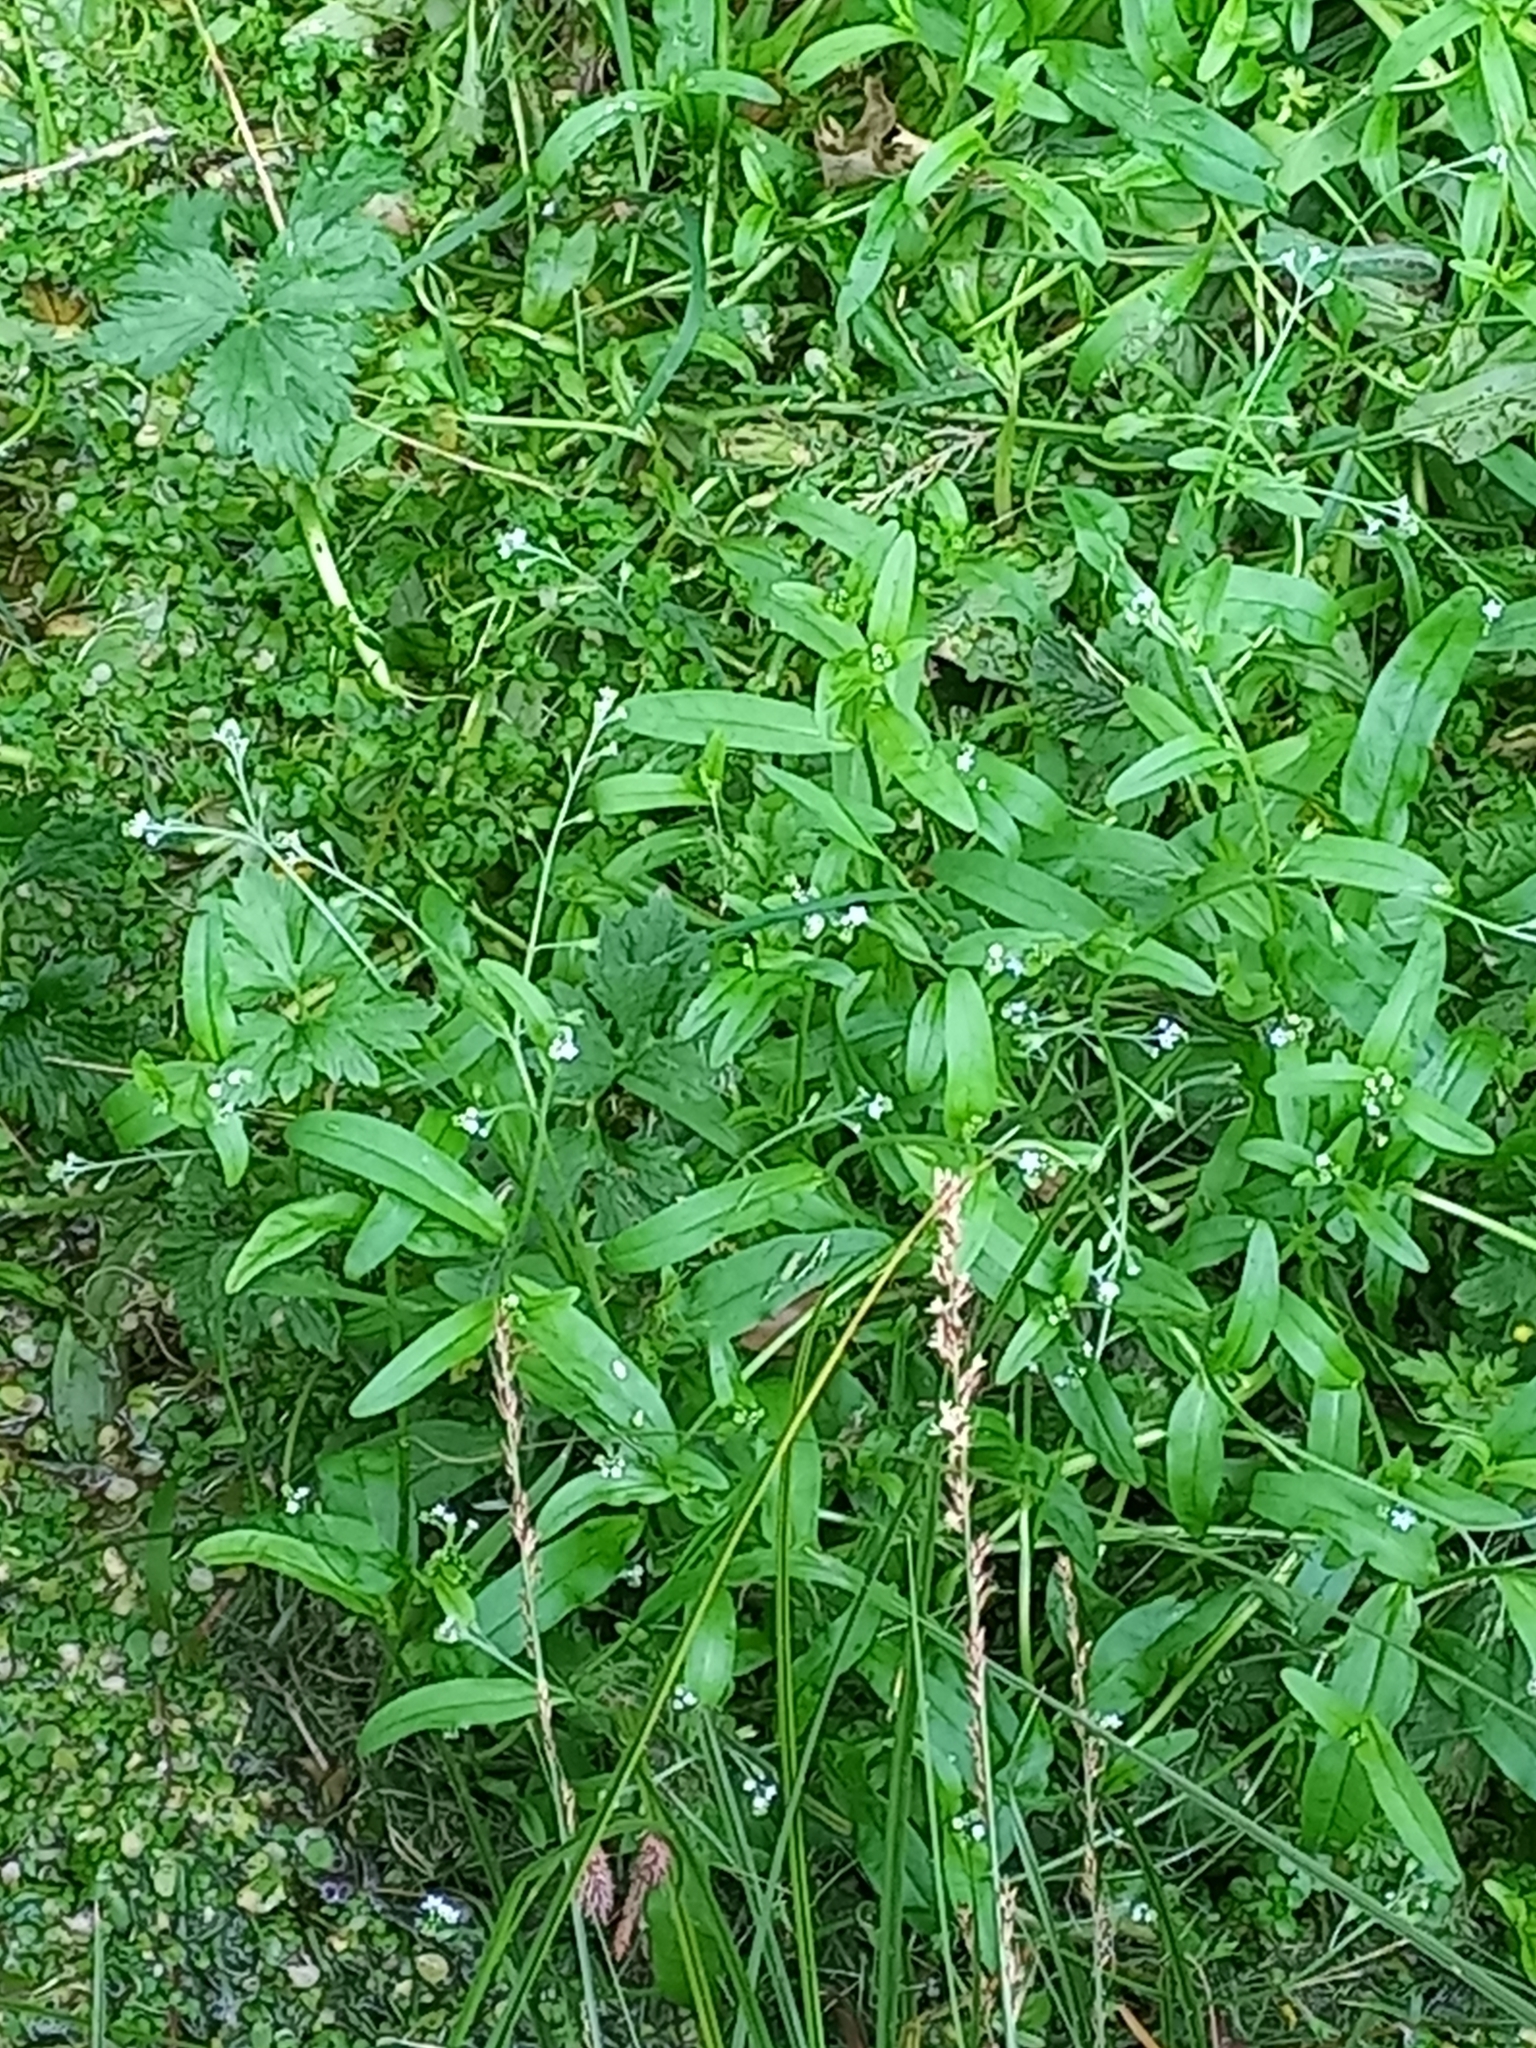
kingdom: Plantae
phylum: Tracheophyta
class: Magnoliopsida
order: Boraginales
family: Boraginaceae
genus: Myosotis
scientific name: Myosotis laxa
